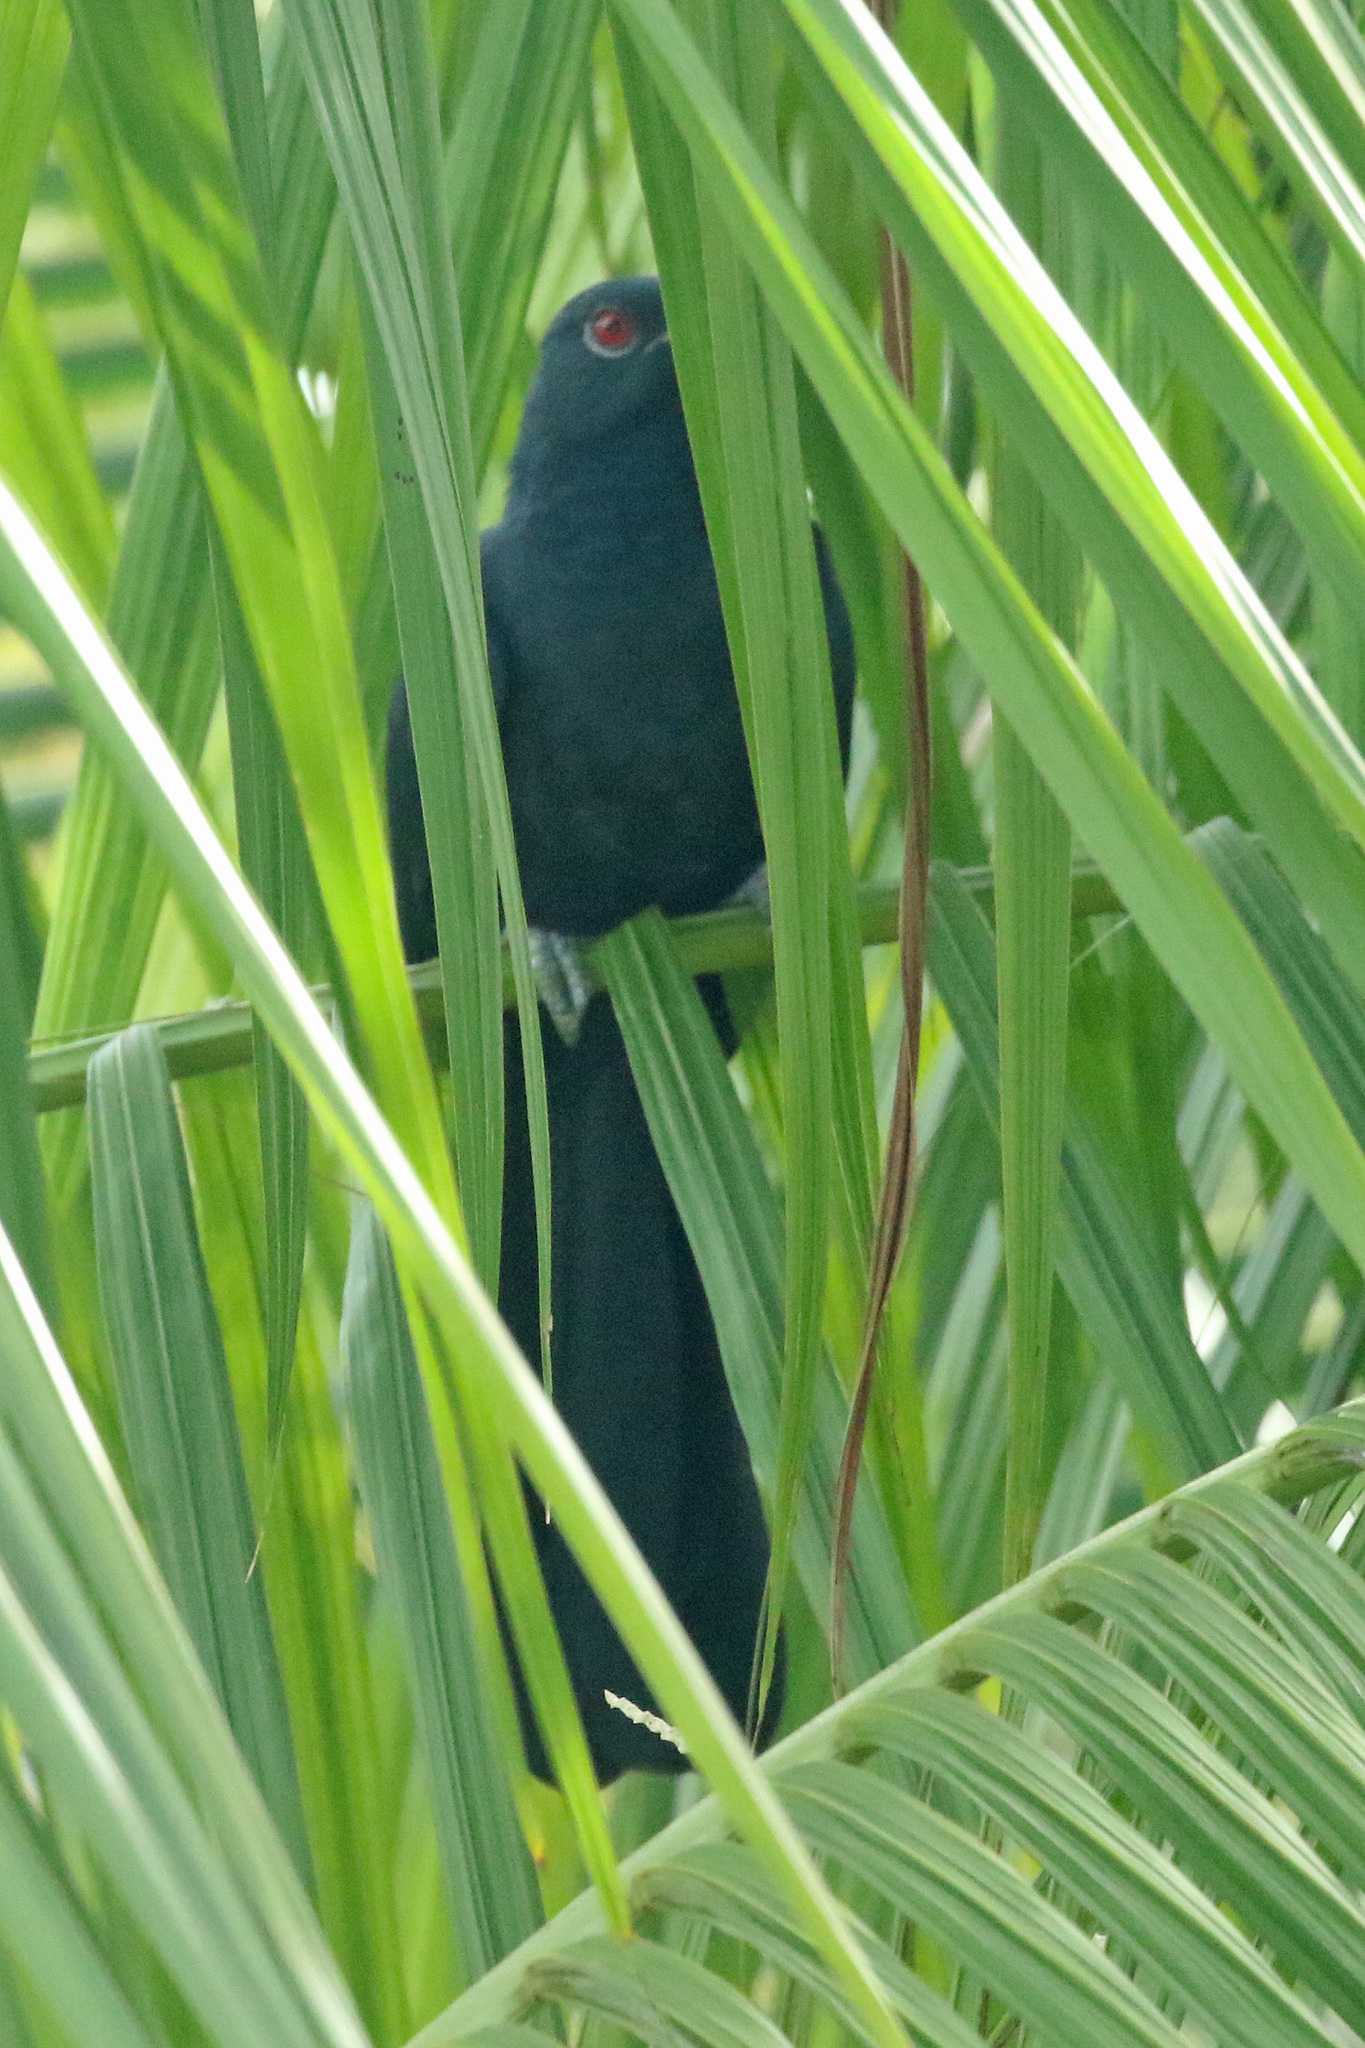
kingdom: Animalia
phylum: Chordata
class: Aves
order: Cuculiformes
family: Cuculidae
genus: Eudynamys
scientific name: Eudynamys scolopaceus
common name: Asian koel
